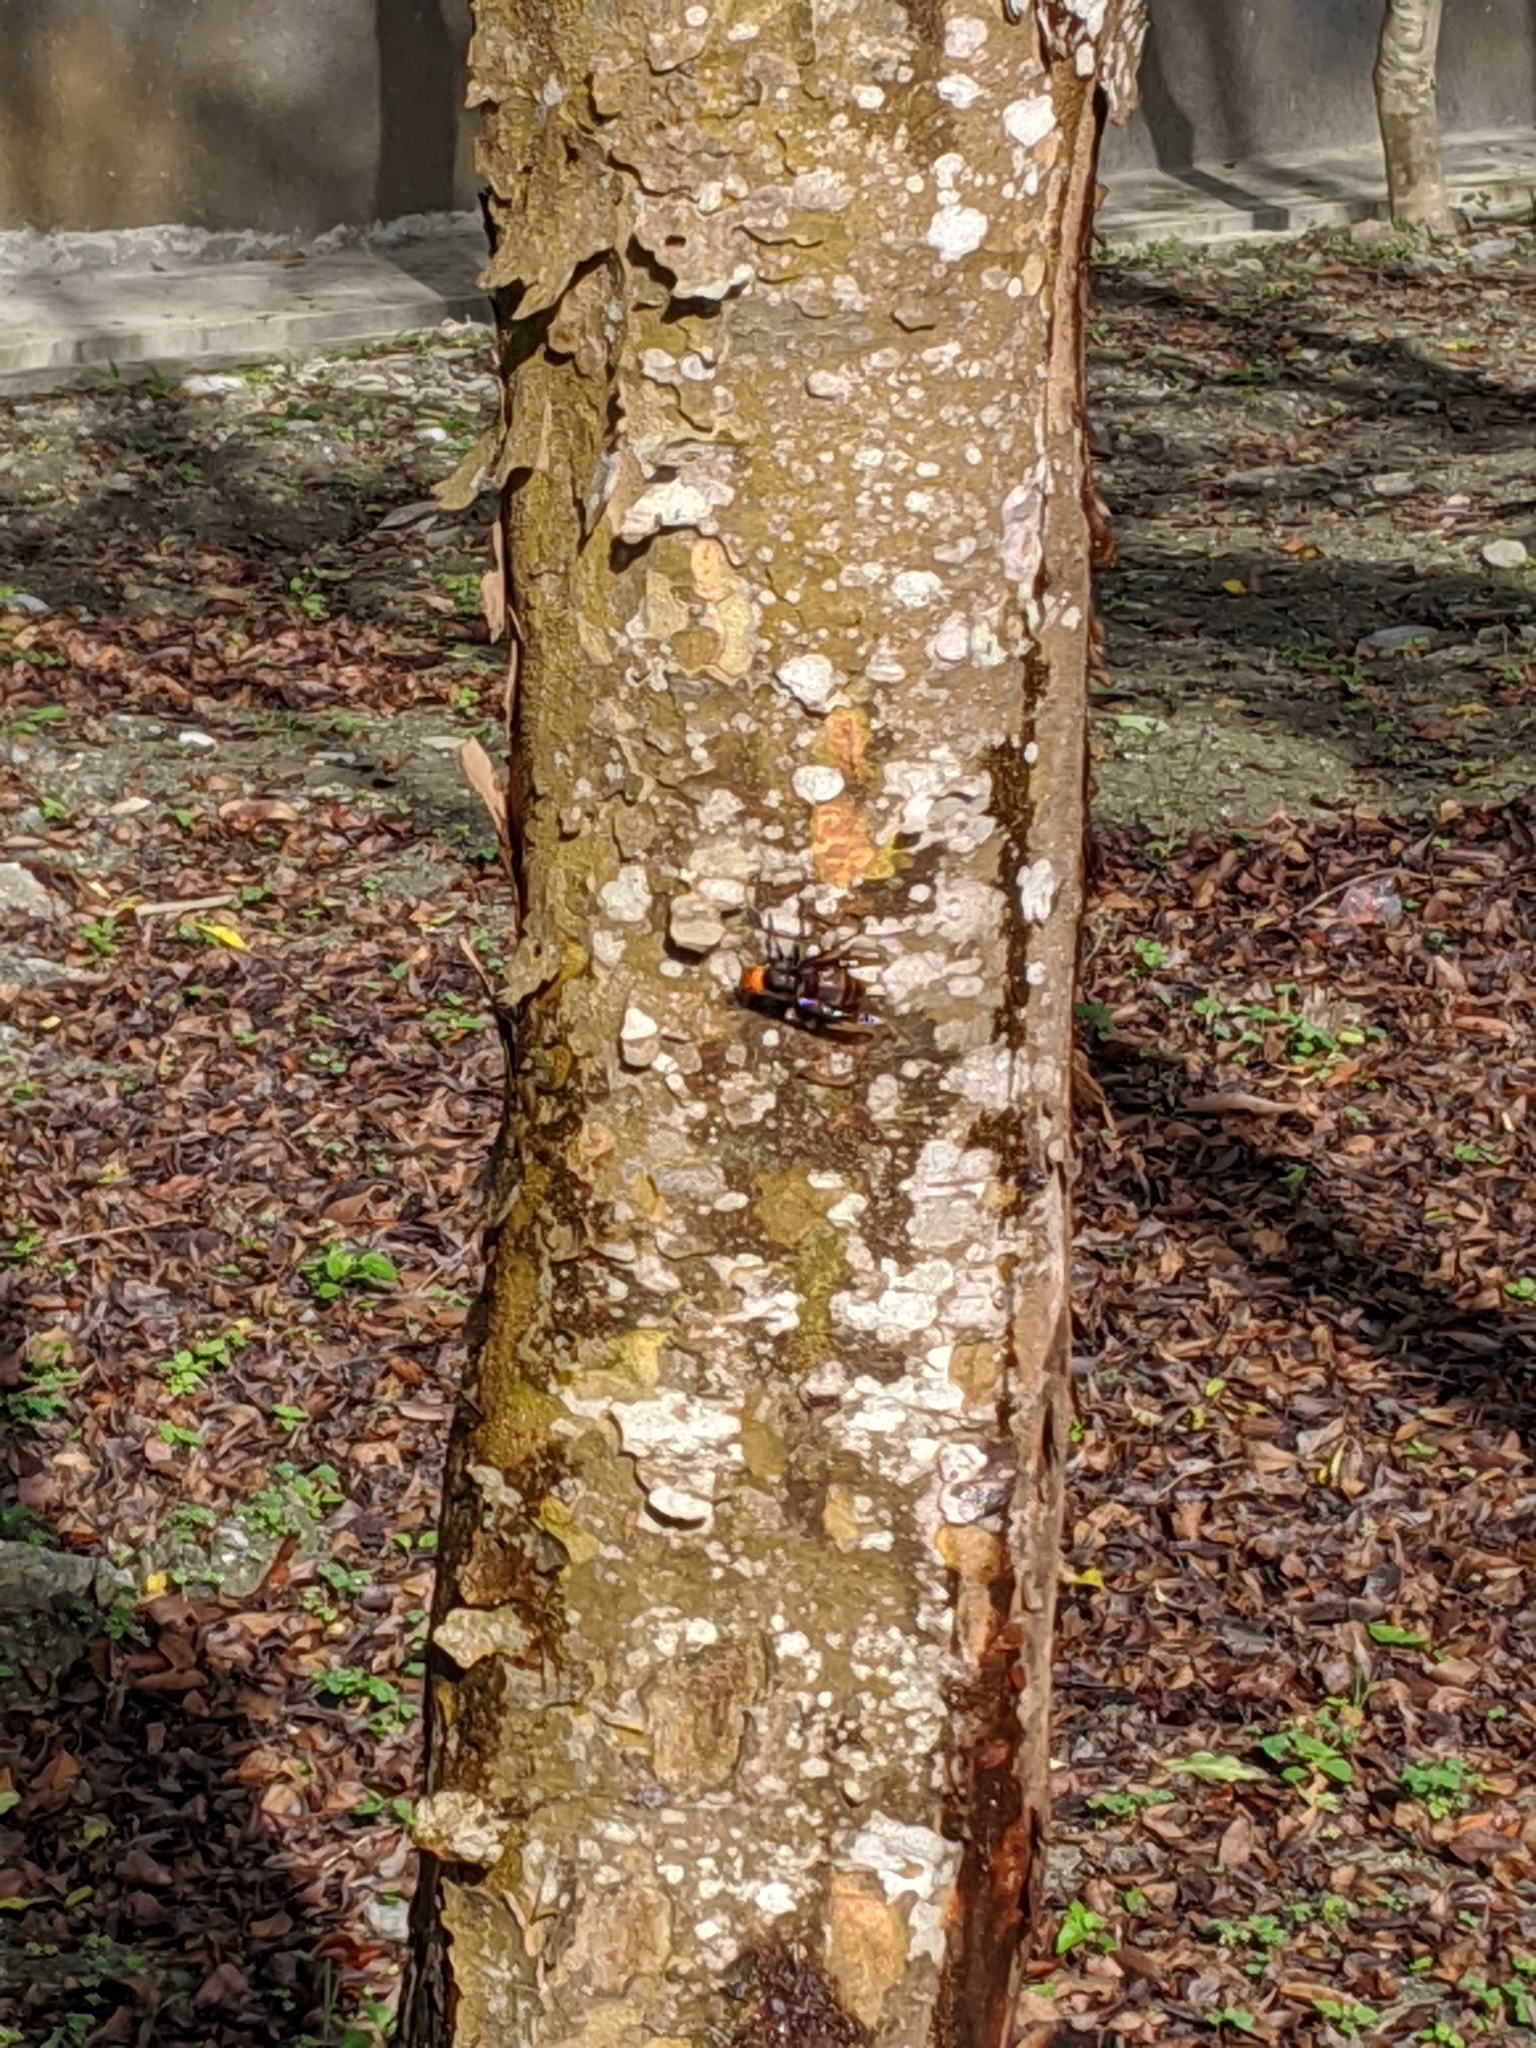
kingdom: Animalia
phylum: Arthropoda
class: Insecta
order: Hymenoptera
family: Vespidae
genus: Vespa
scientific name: Vespa mandarinia
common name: Asian giant hornet
